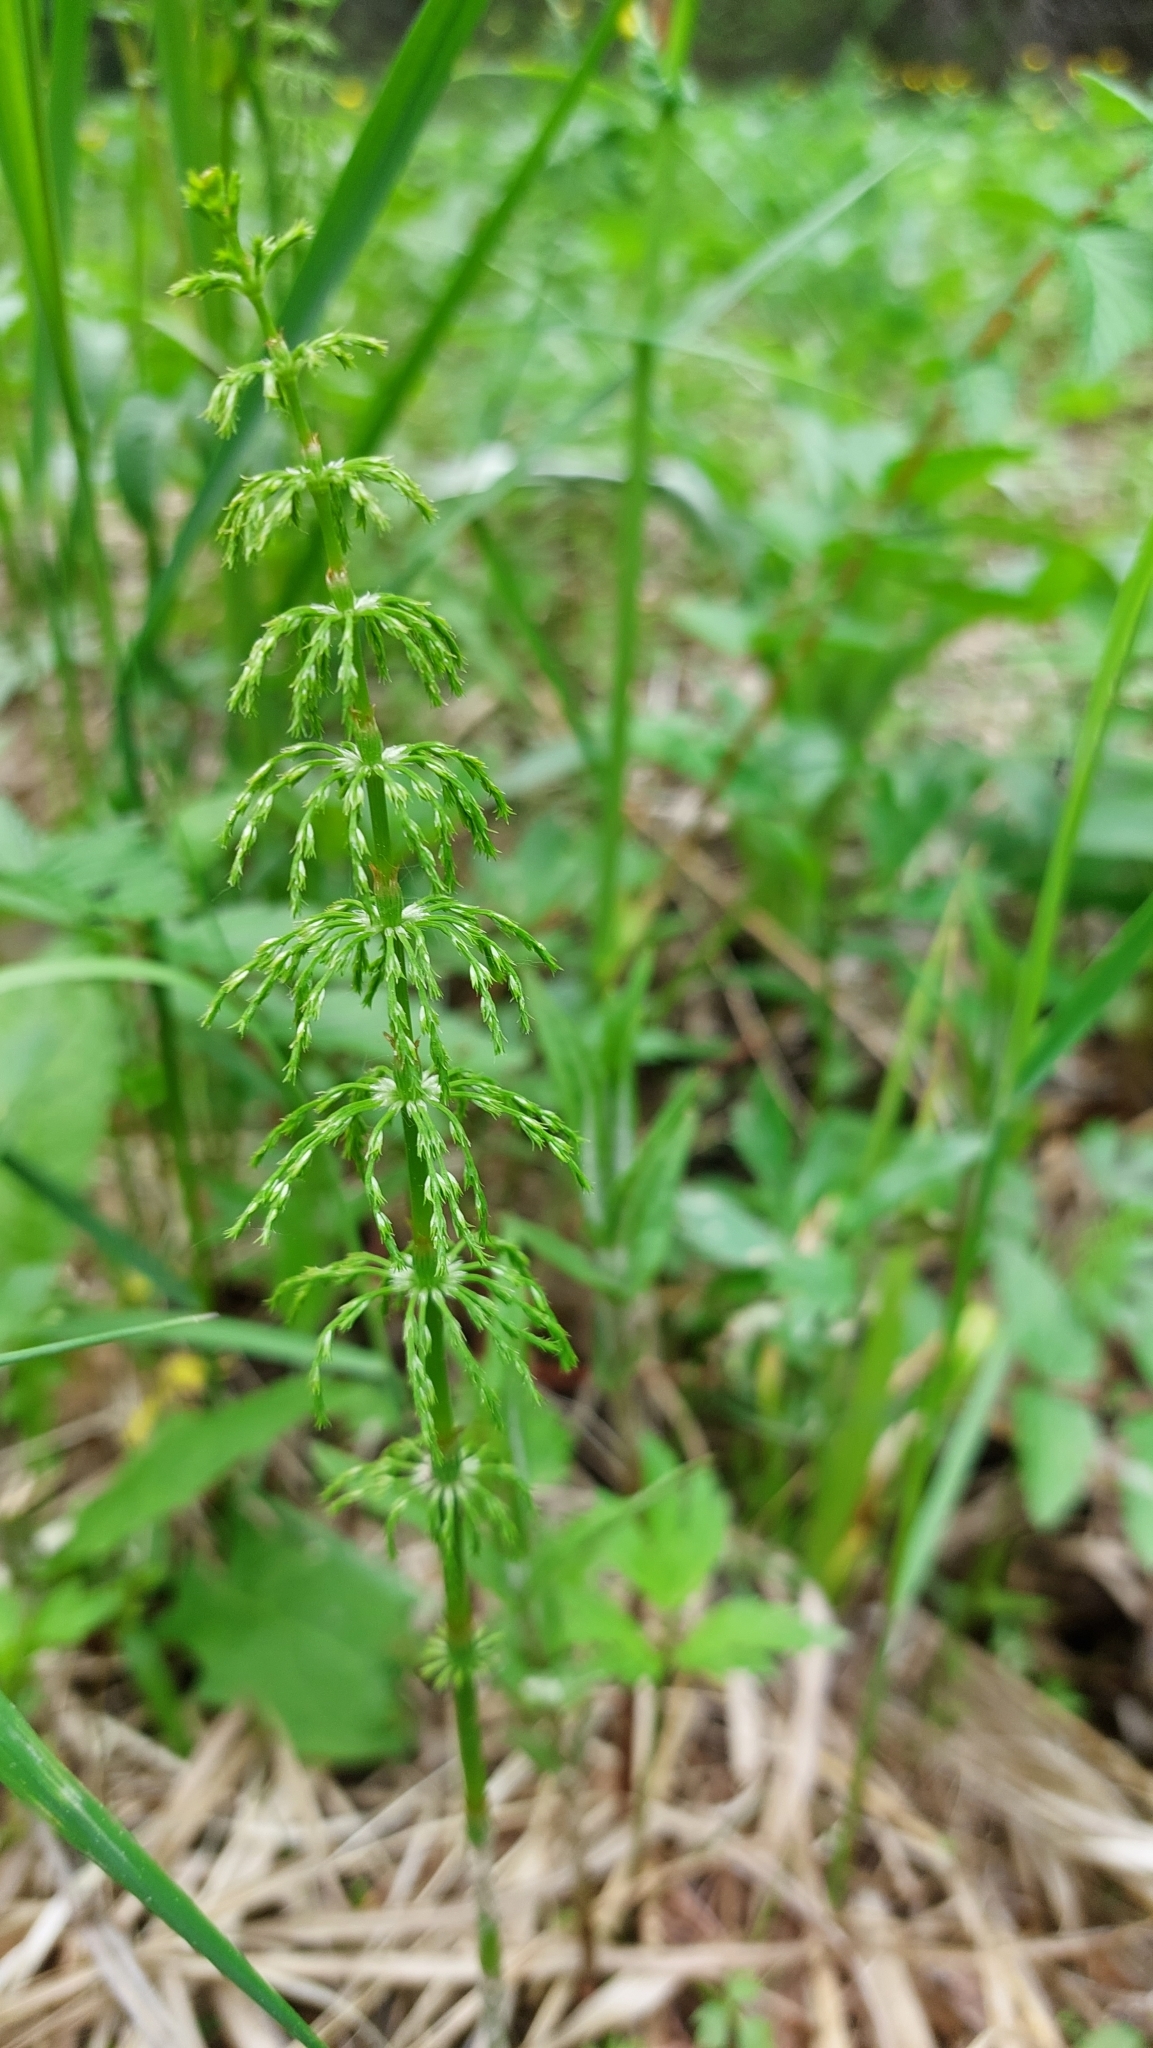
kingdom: Plantae
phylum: Tracheophyta
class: Polypodiopsida
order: Equisetales
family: Equisetaceae
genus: Equisetum
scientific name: Equisetum sylvaticum
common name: Wood horsetail
